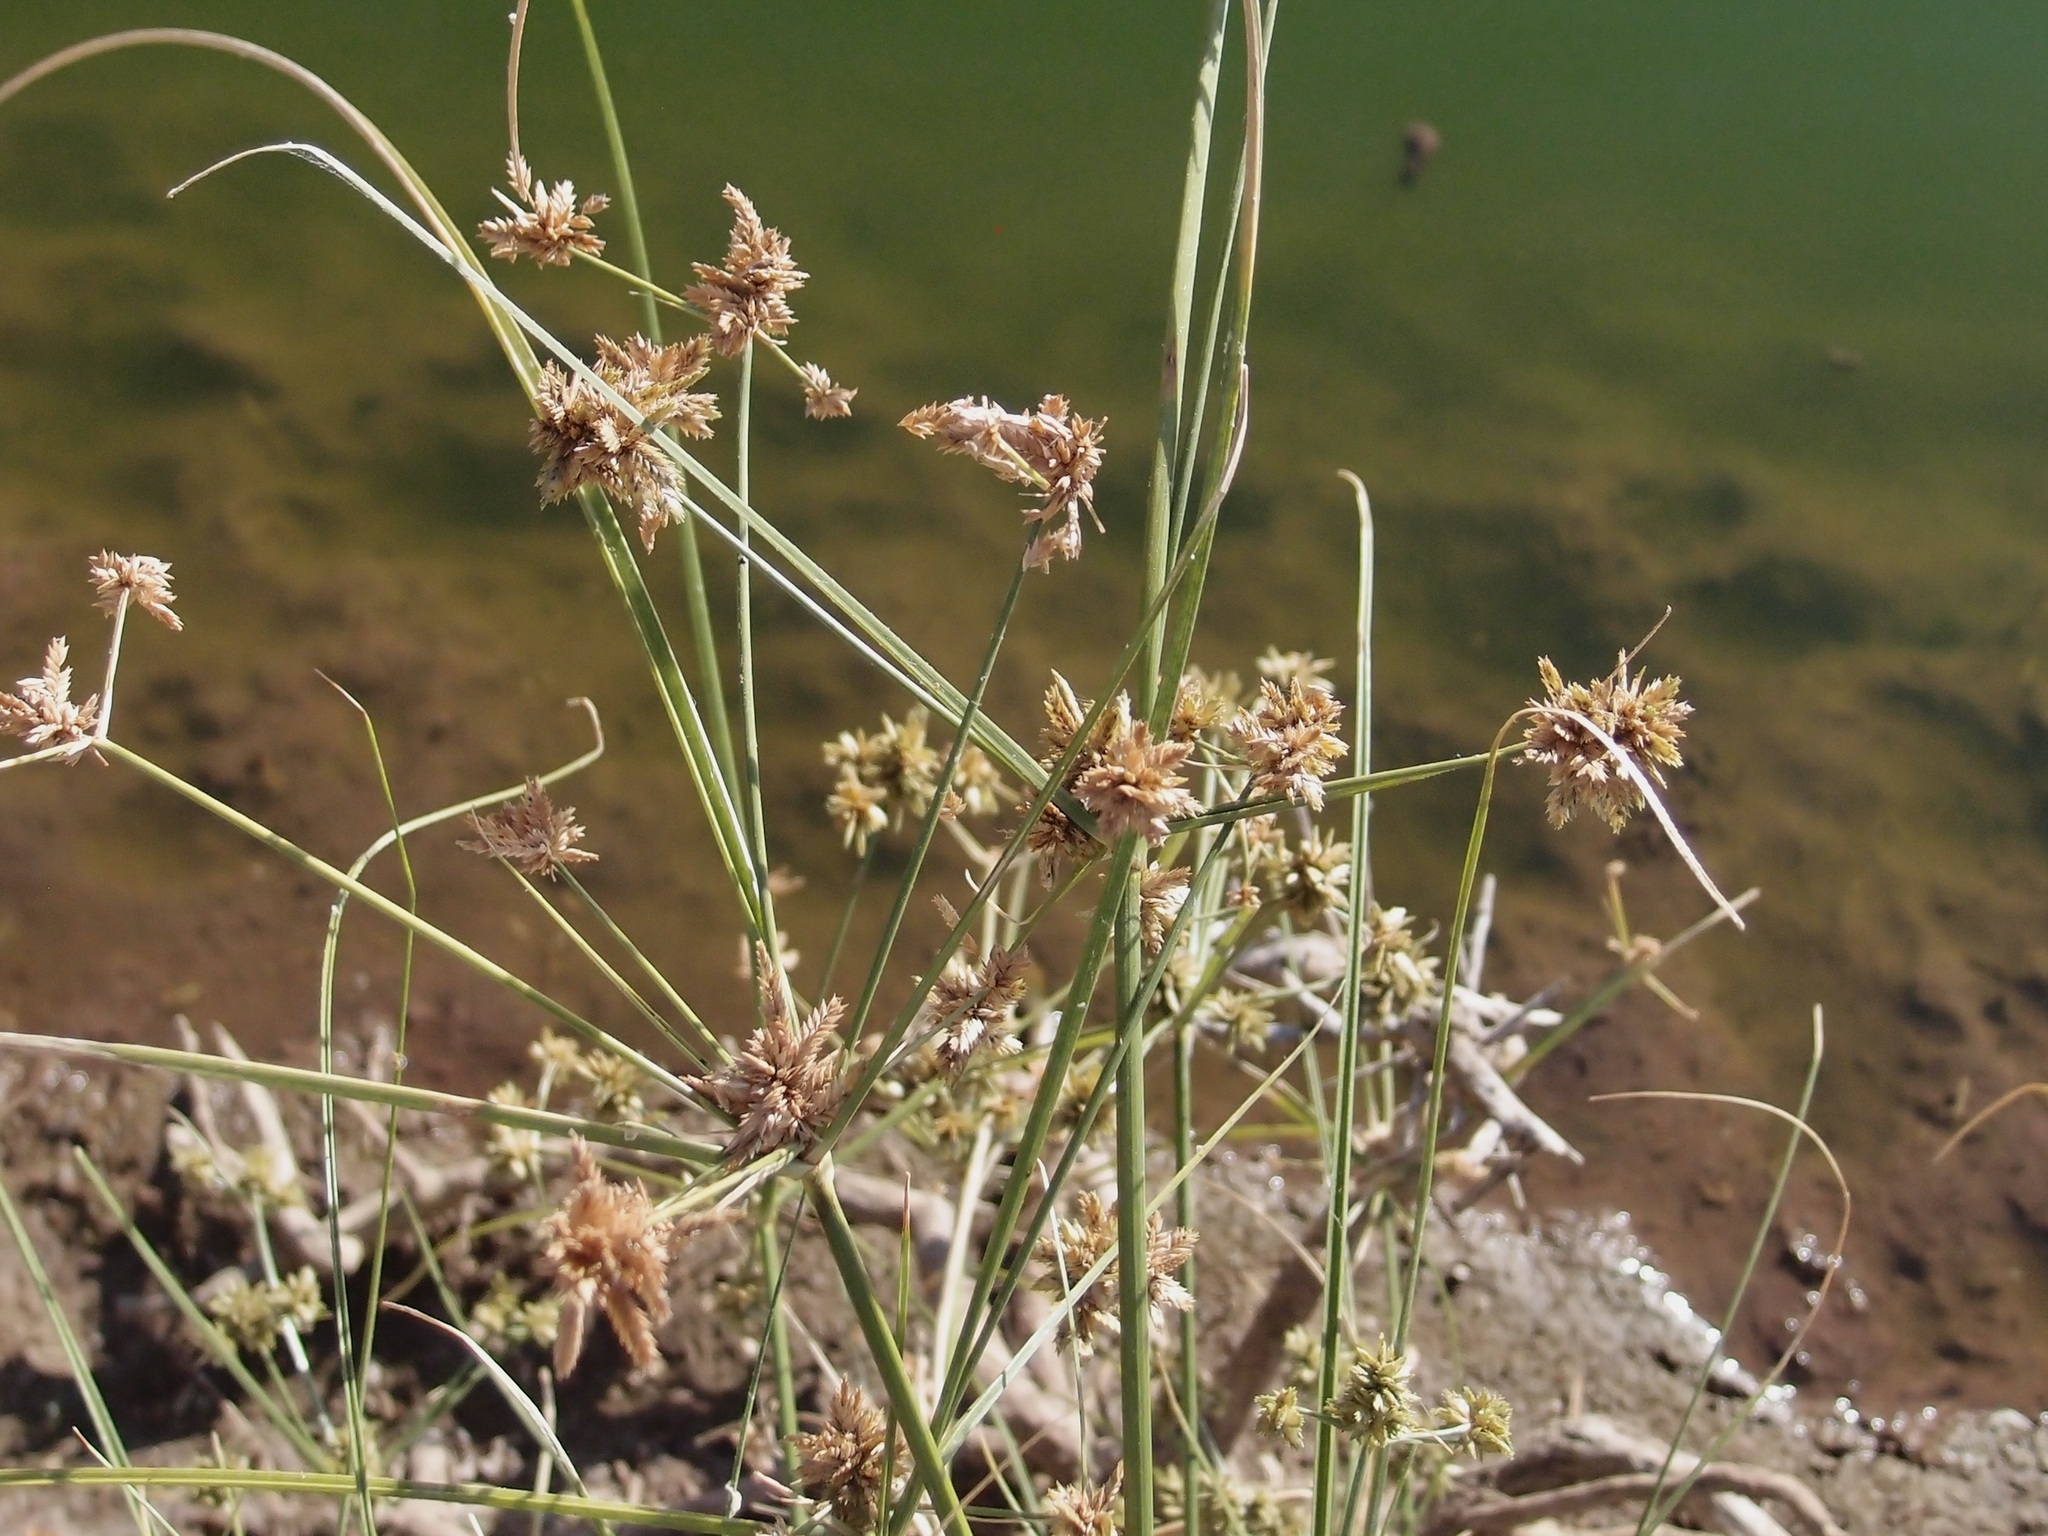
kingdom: Plantae
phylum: Tracheophyta
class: Liliopsida
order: Poales
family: Cyperaceae
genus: Cyperus
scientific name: Cyperus elegans
